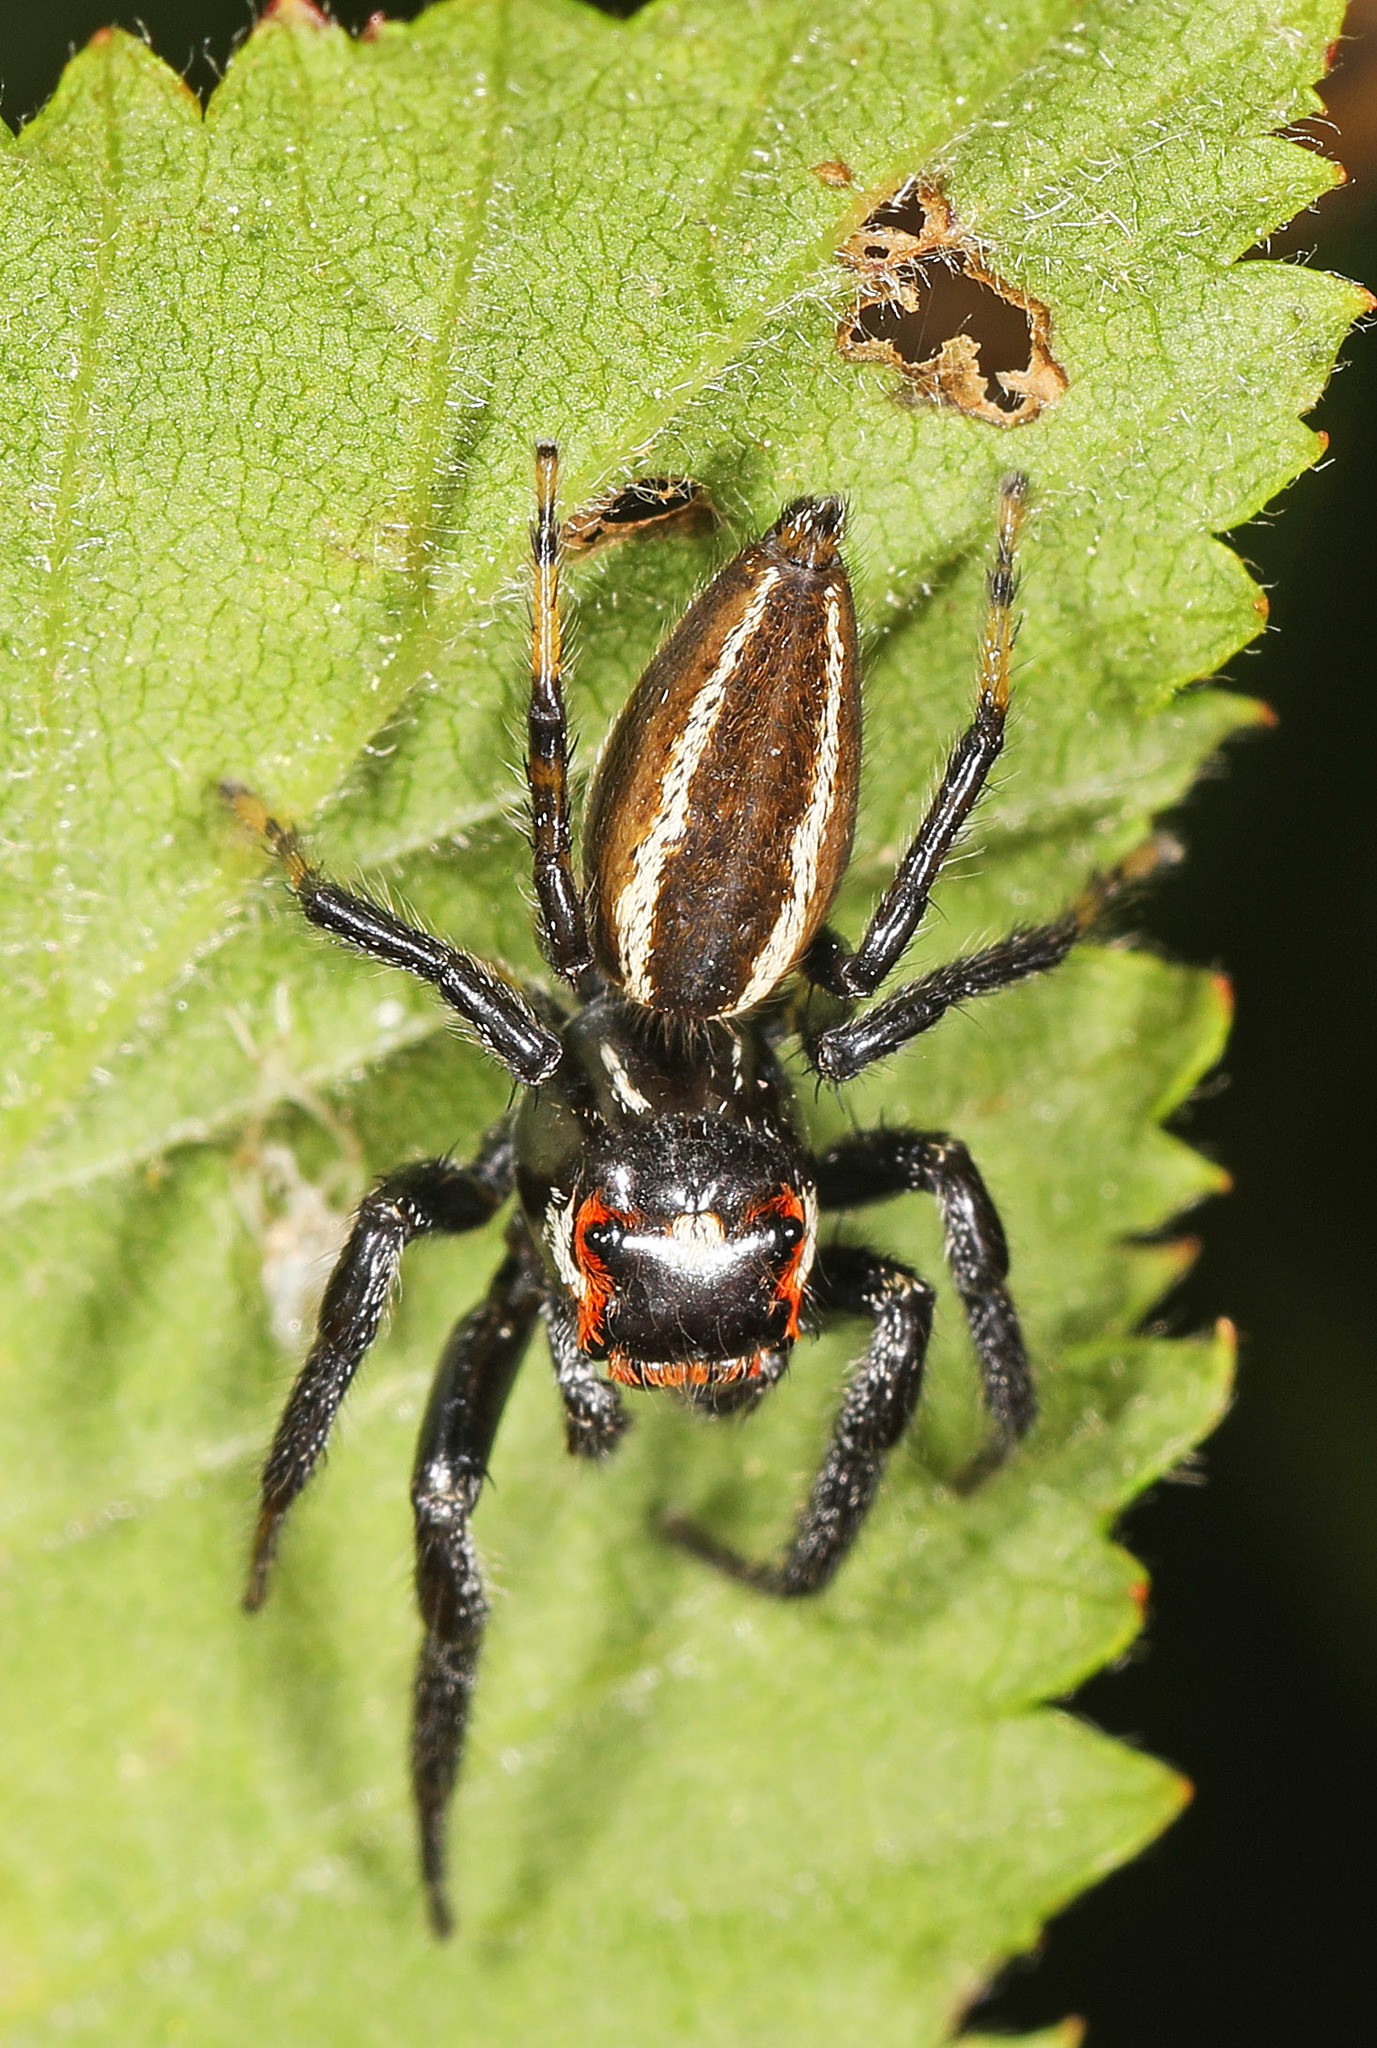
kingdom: Animalia
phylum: Arthropoda
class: Arachnida
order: Araneae
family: Salticidae
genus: Colonus
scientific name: Colonus sylvanus
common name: Jumping spiders
